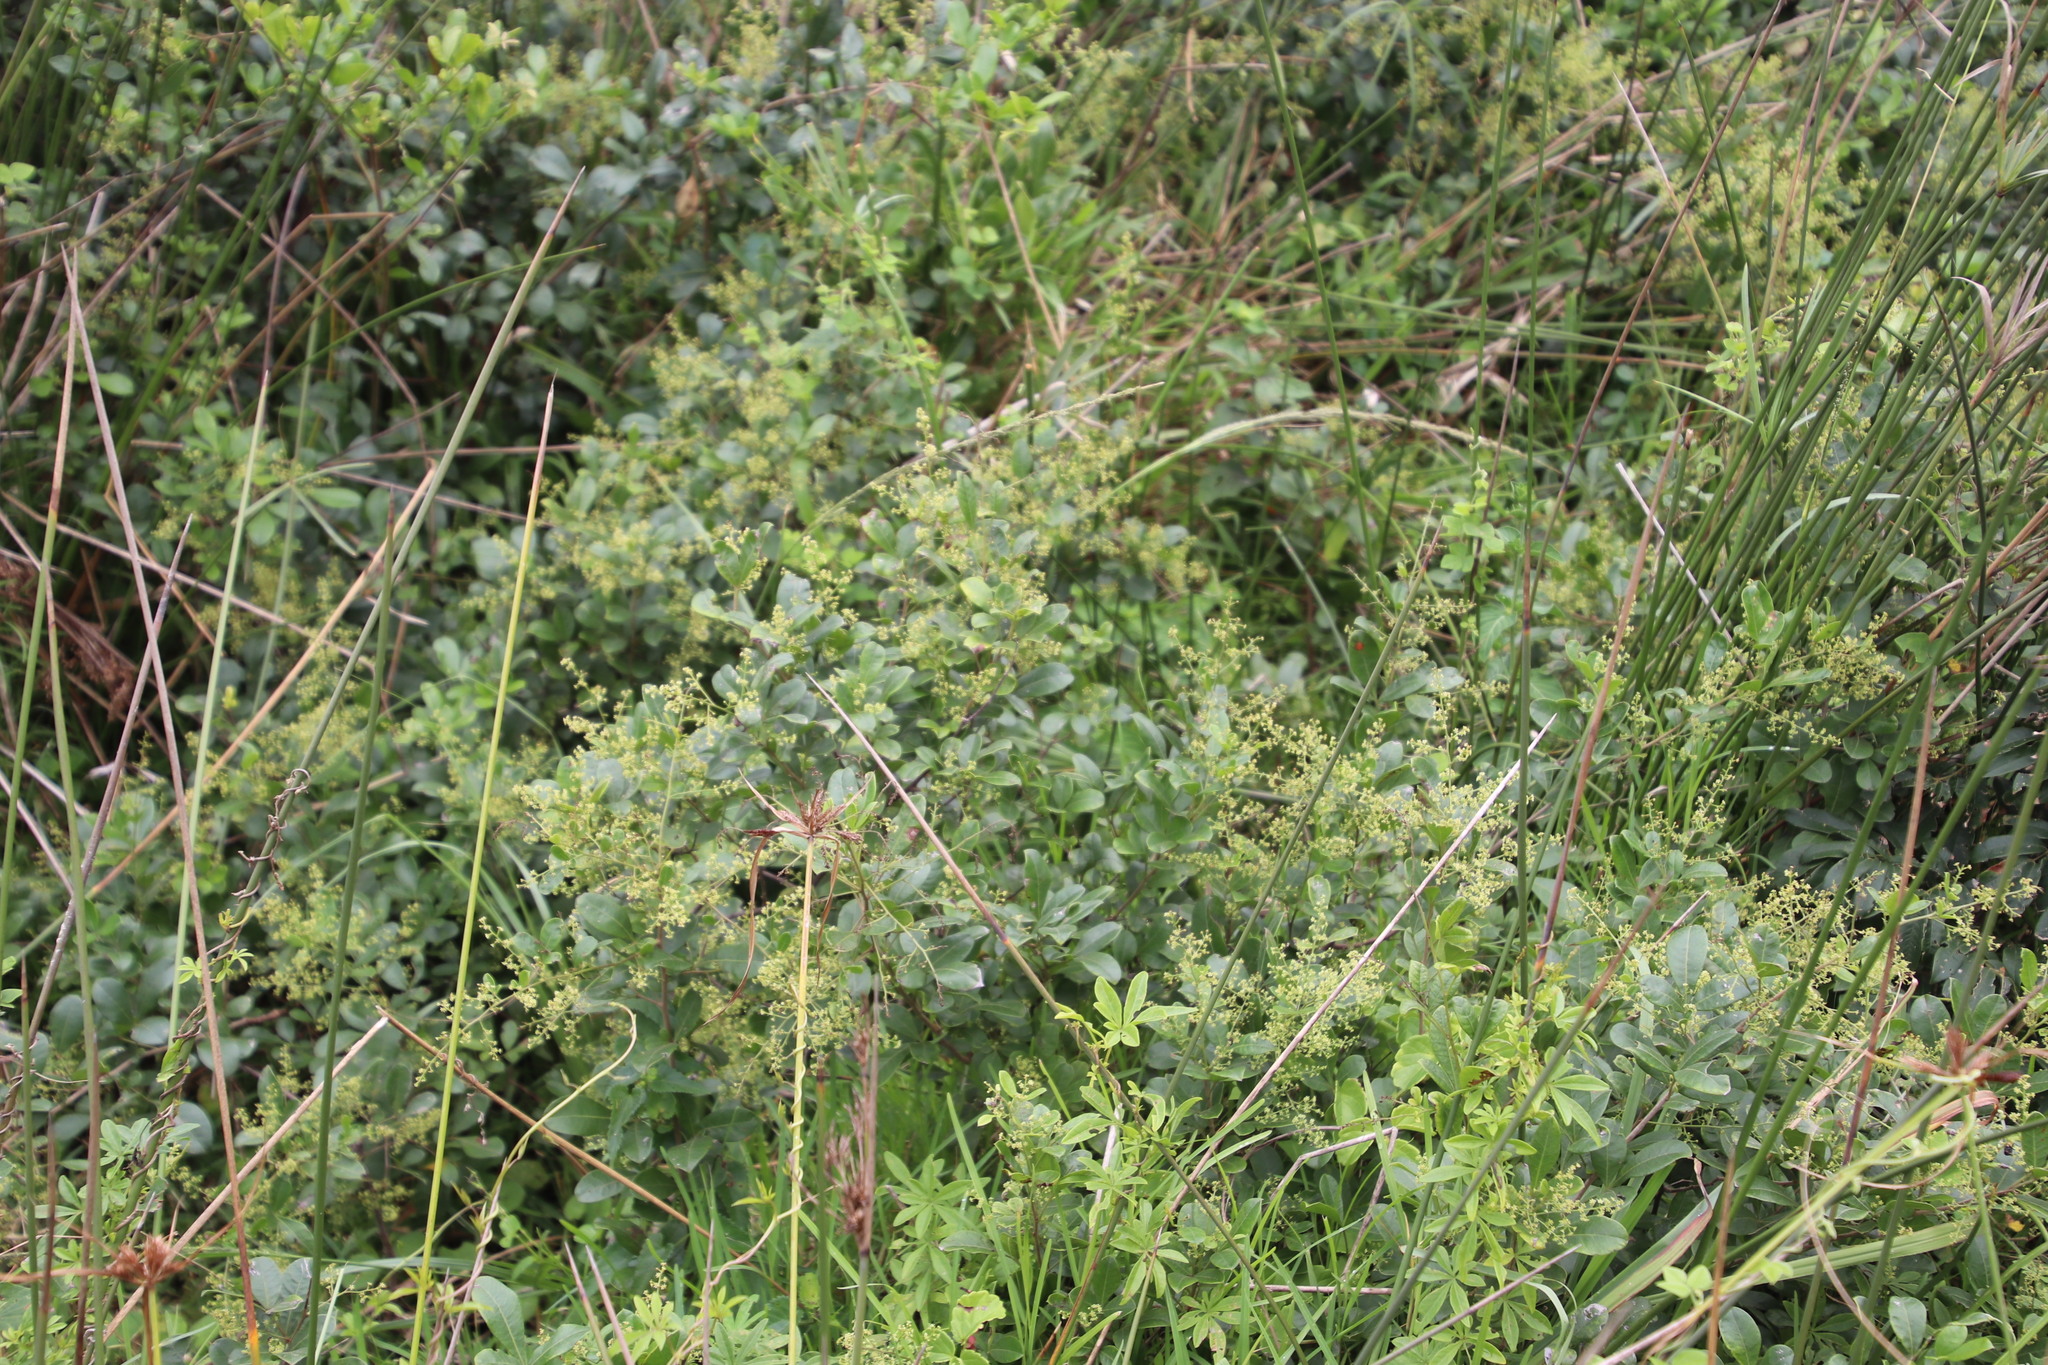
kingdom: Plantae
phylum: Tracheophyta
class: Magnoliopsida
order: Sapindales
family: Anacardiaceae
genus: Searsia
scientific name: Searsia nebulosa
